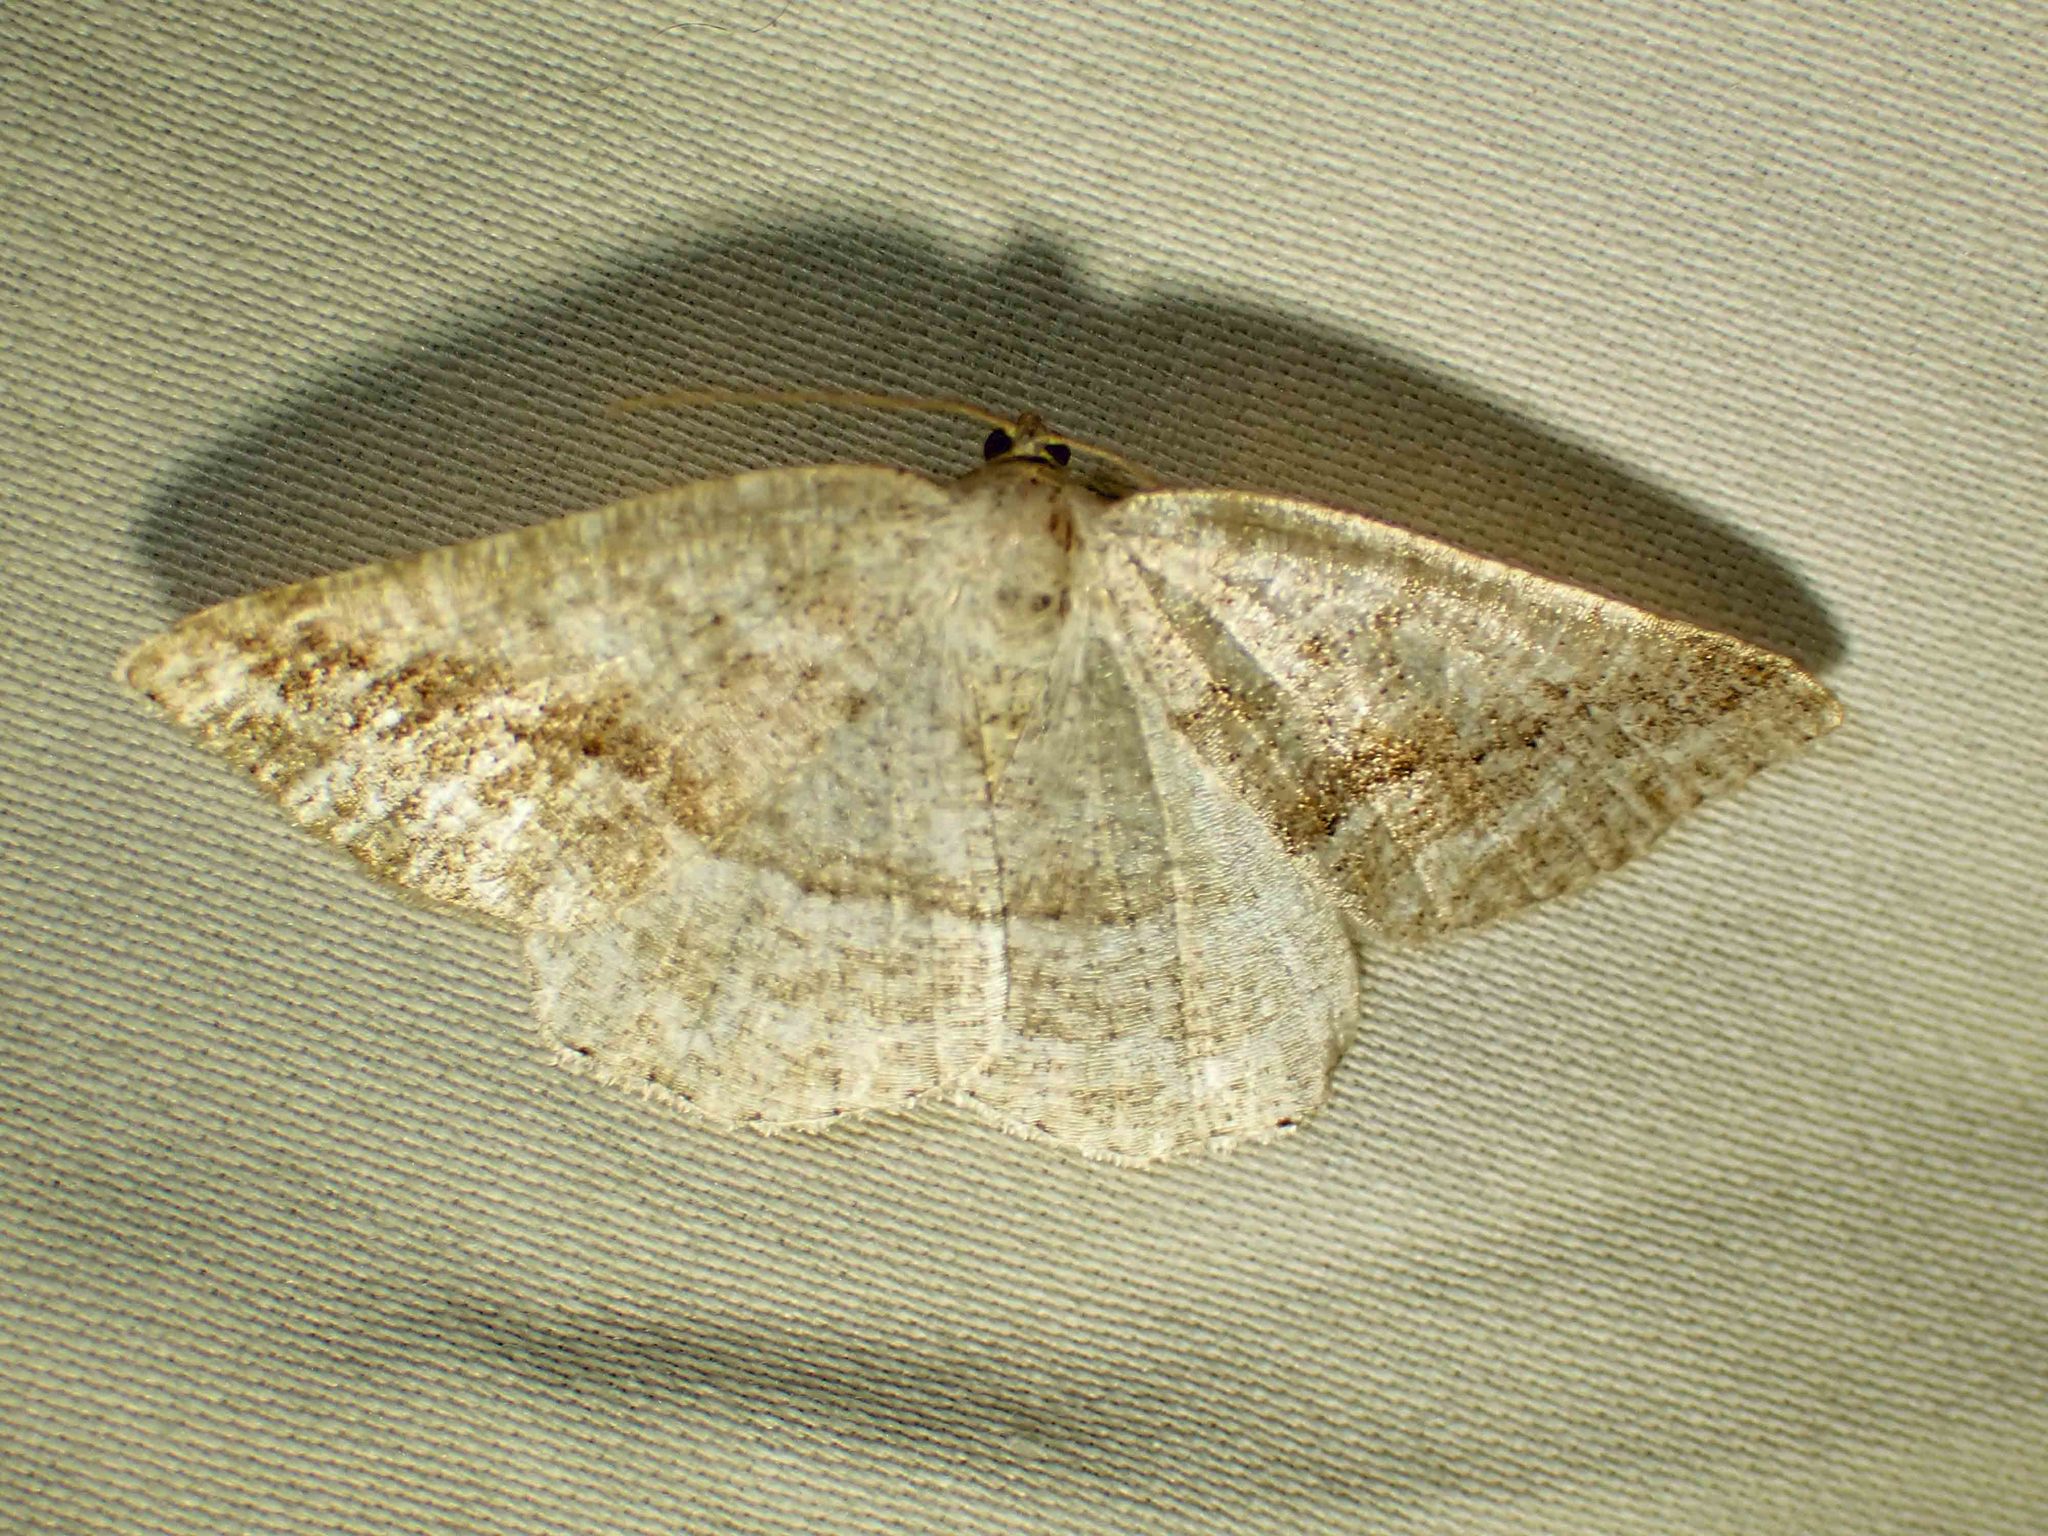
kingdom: Animalia
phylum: Arthropoda
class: Insecta
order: Lepidoptera
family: Geometridae
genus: Tacparia
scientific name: Tacparia detersata
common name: Pale alder moth
